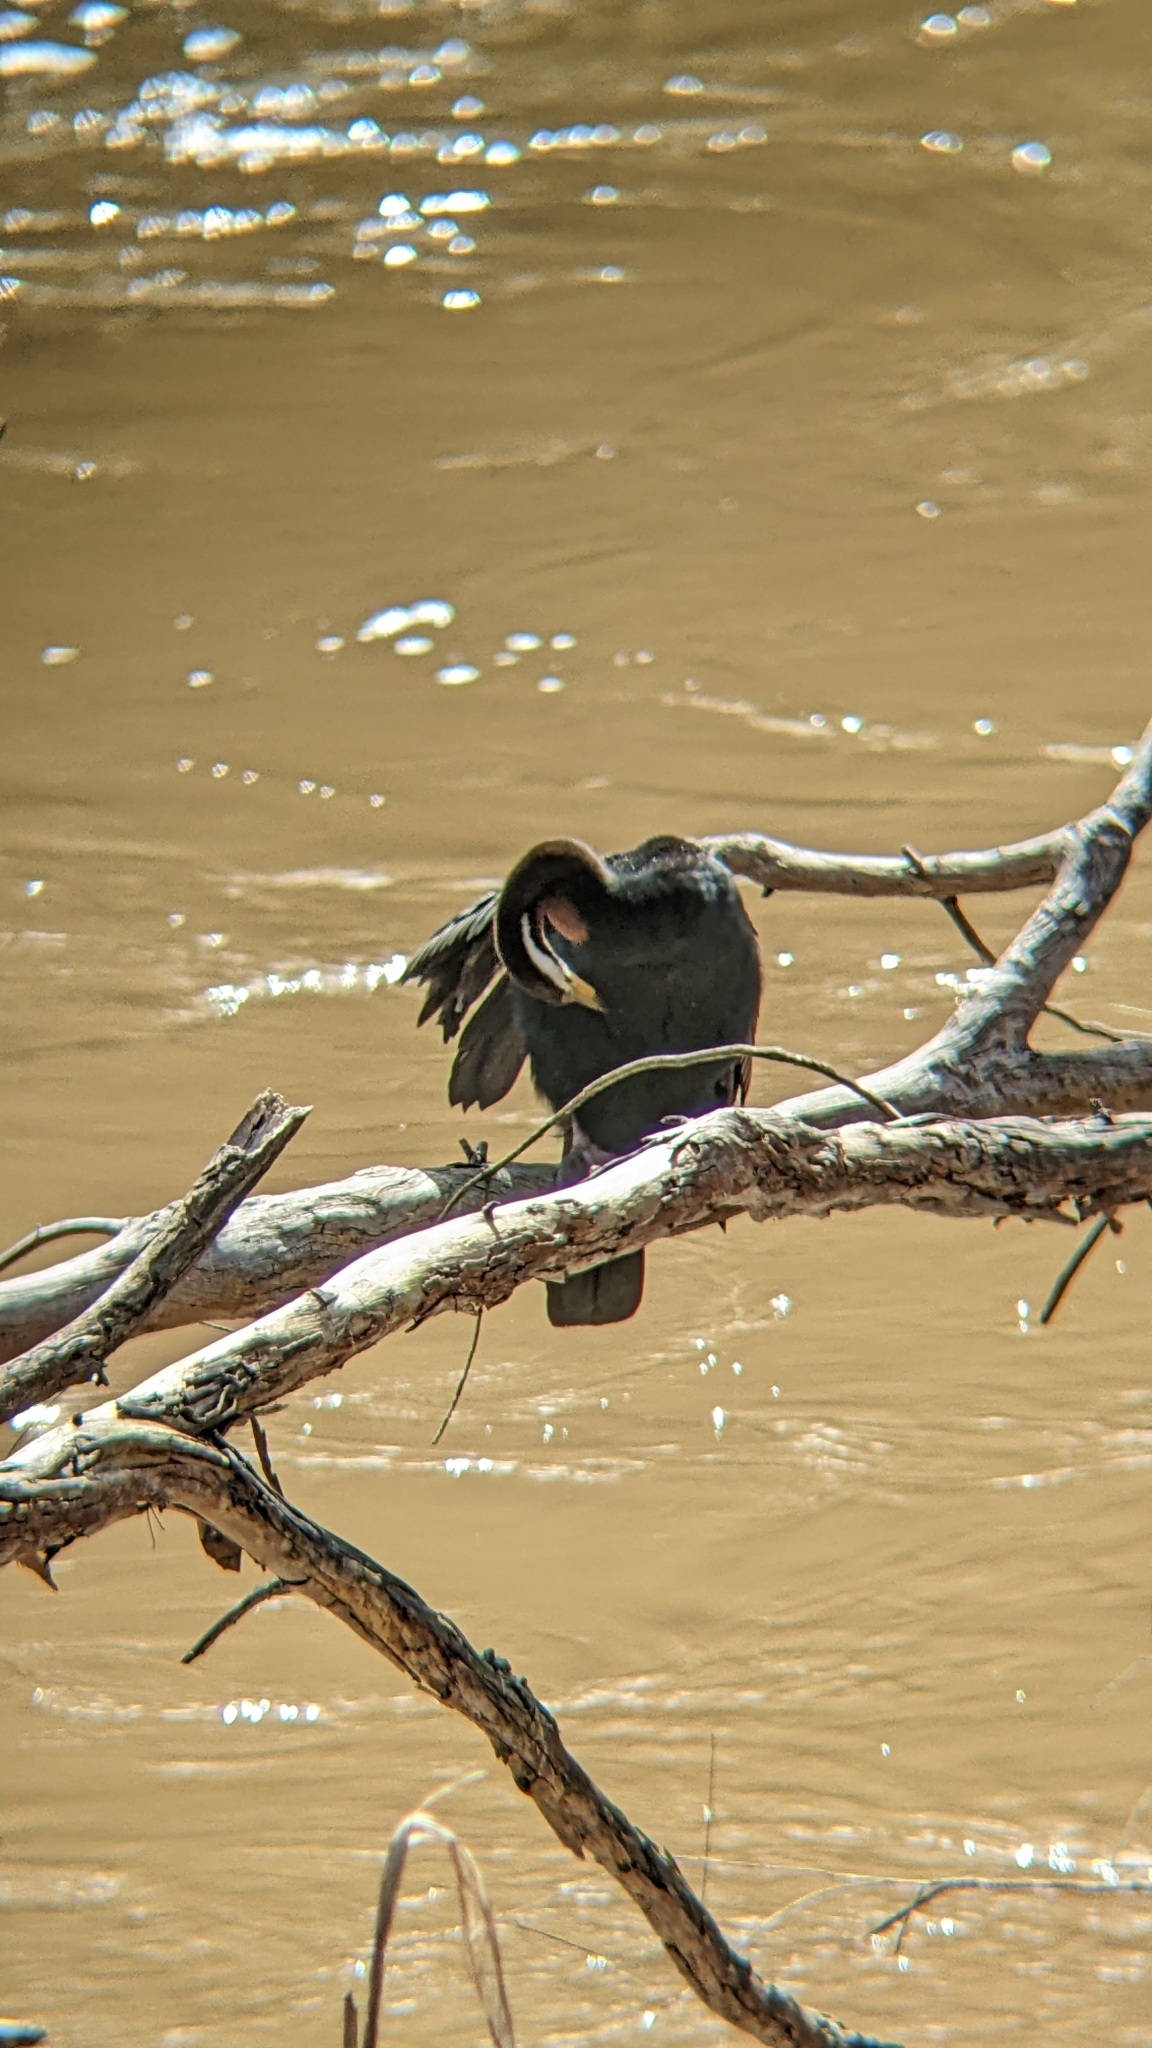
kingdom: Animalia
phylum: Chordata
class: Aves
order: Suliformes
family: Anhingidae
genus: Anhinga
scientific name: Anhinga novaehollandiae
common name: Australasian darter
